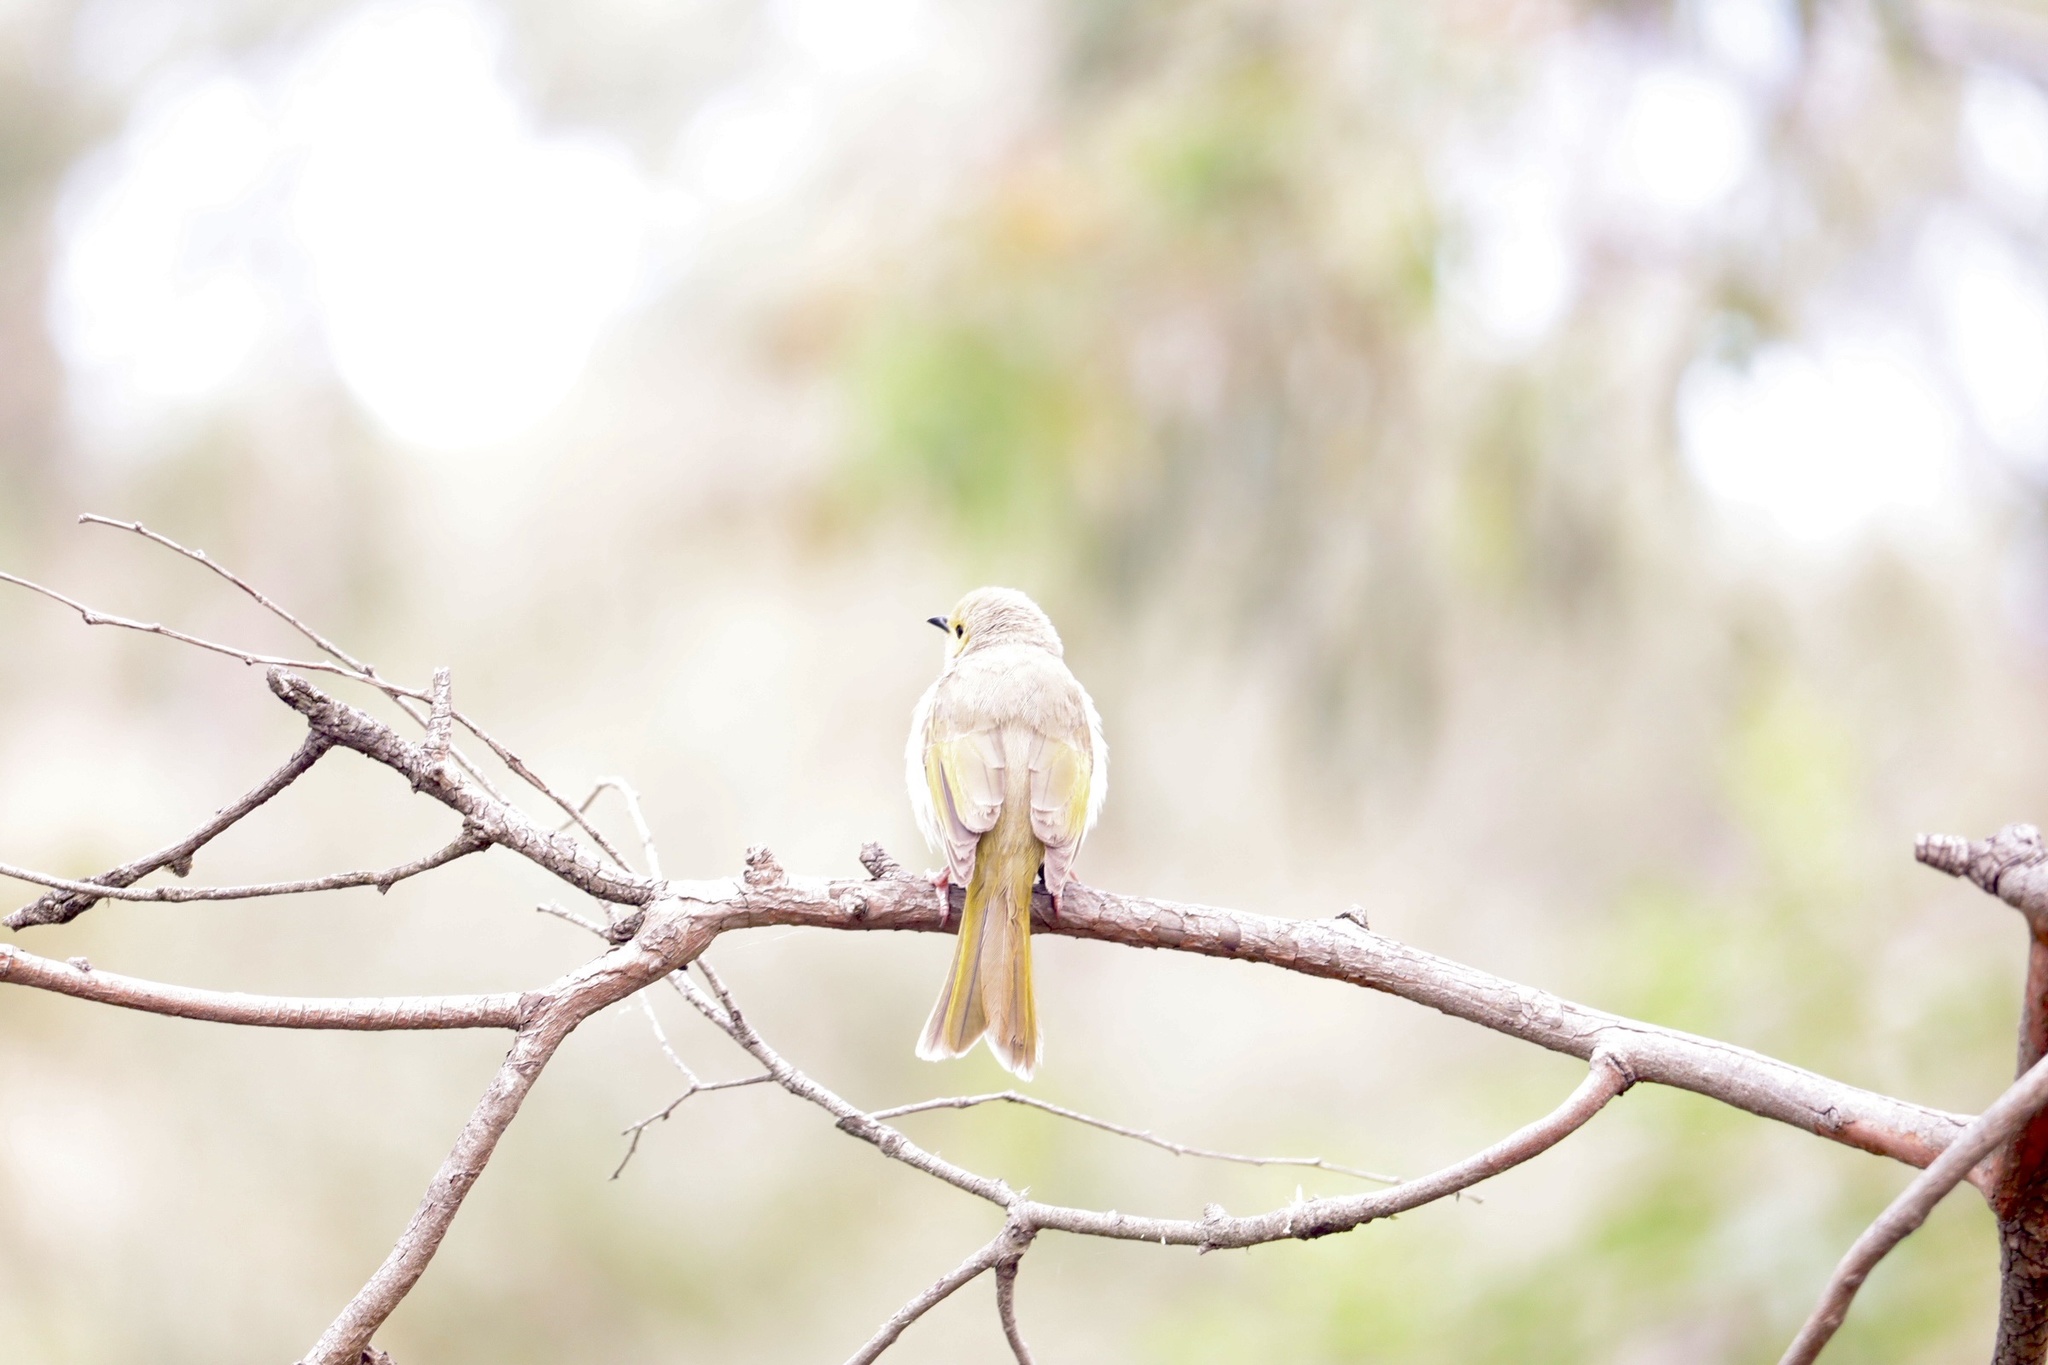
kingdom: Animalia
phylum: Chordata
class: Aves
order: Passeriformes
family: Meliphagidae
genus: Ptilotula
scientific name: Ptilotula penicillata
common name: White-plumed honeyeater
